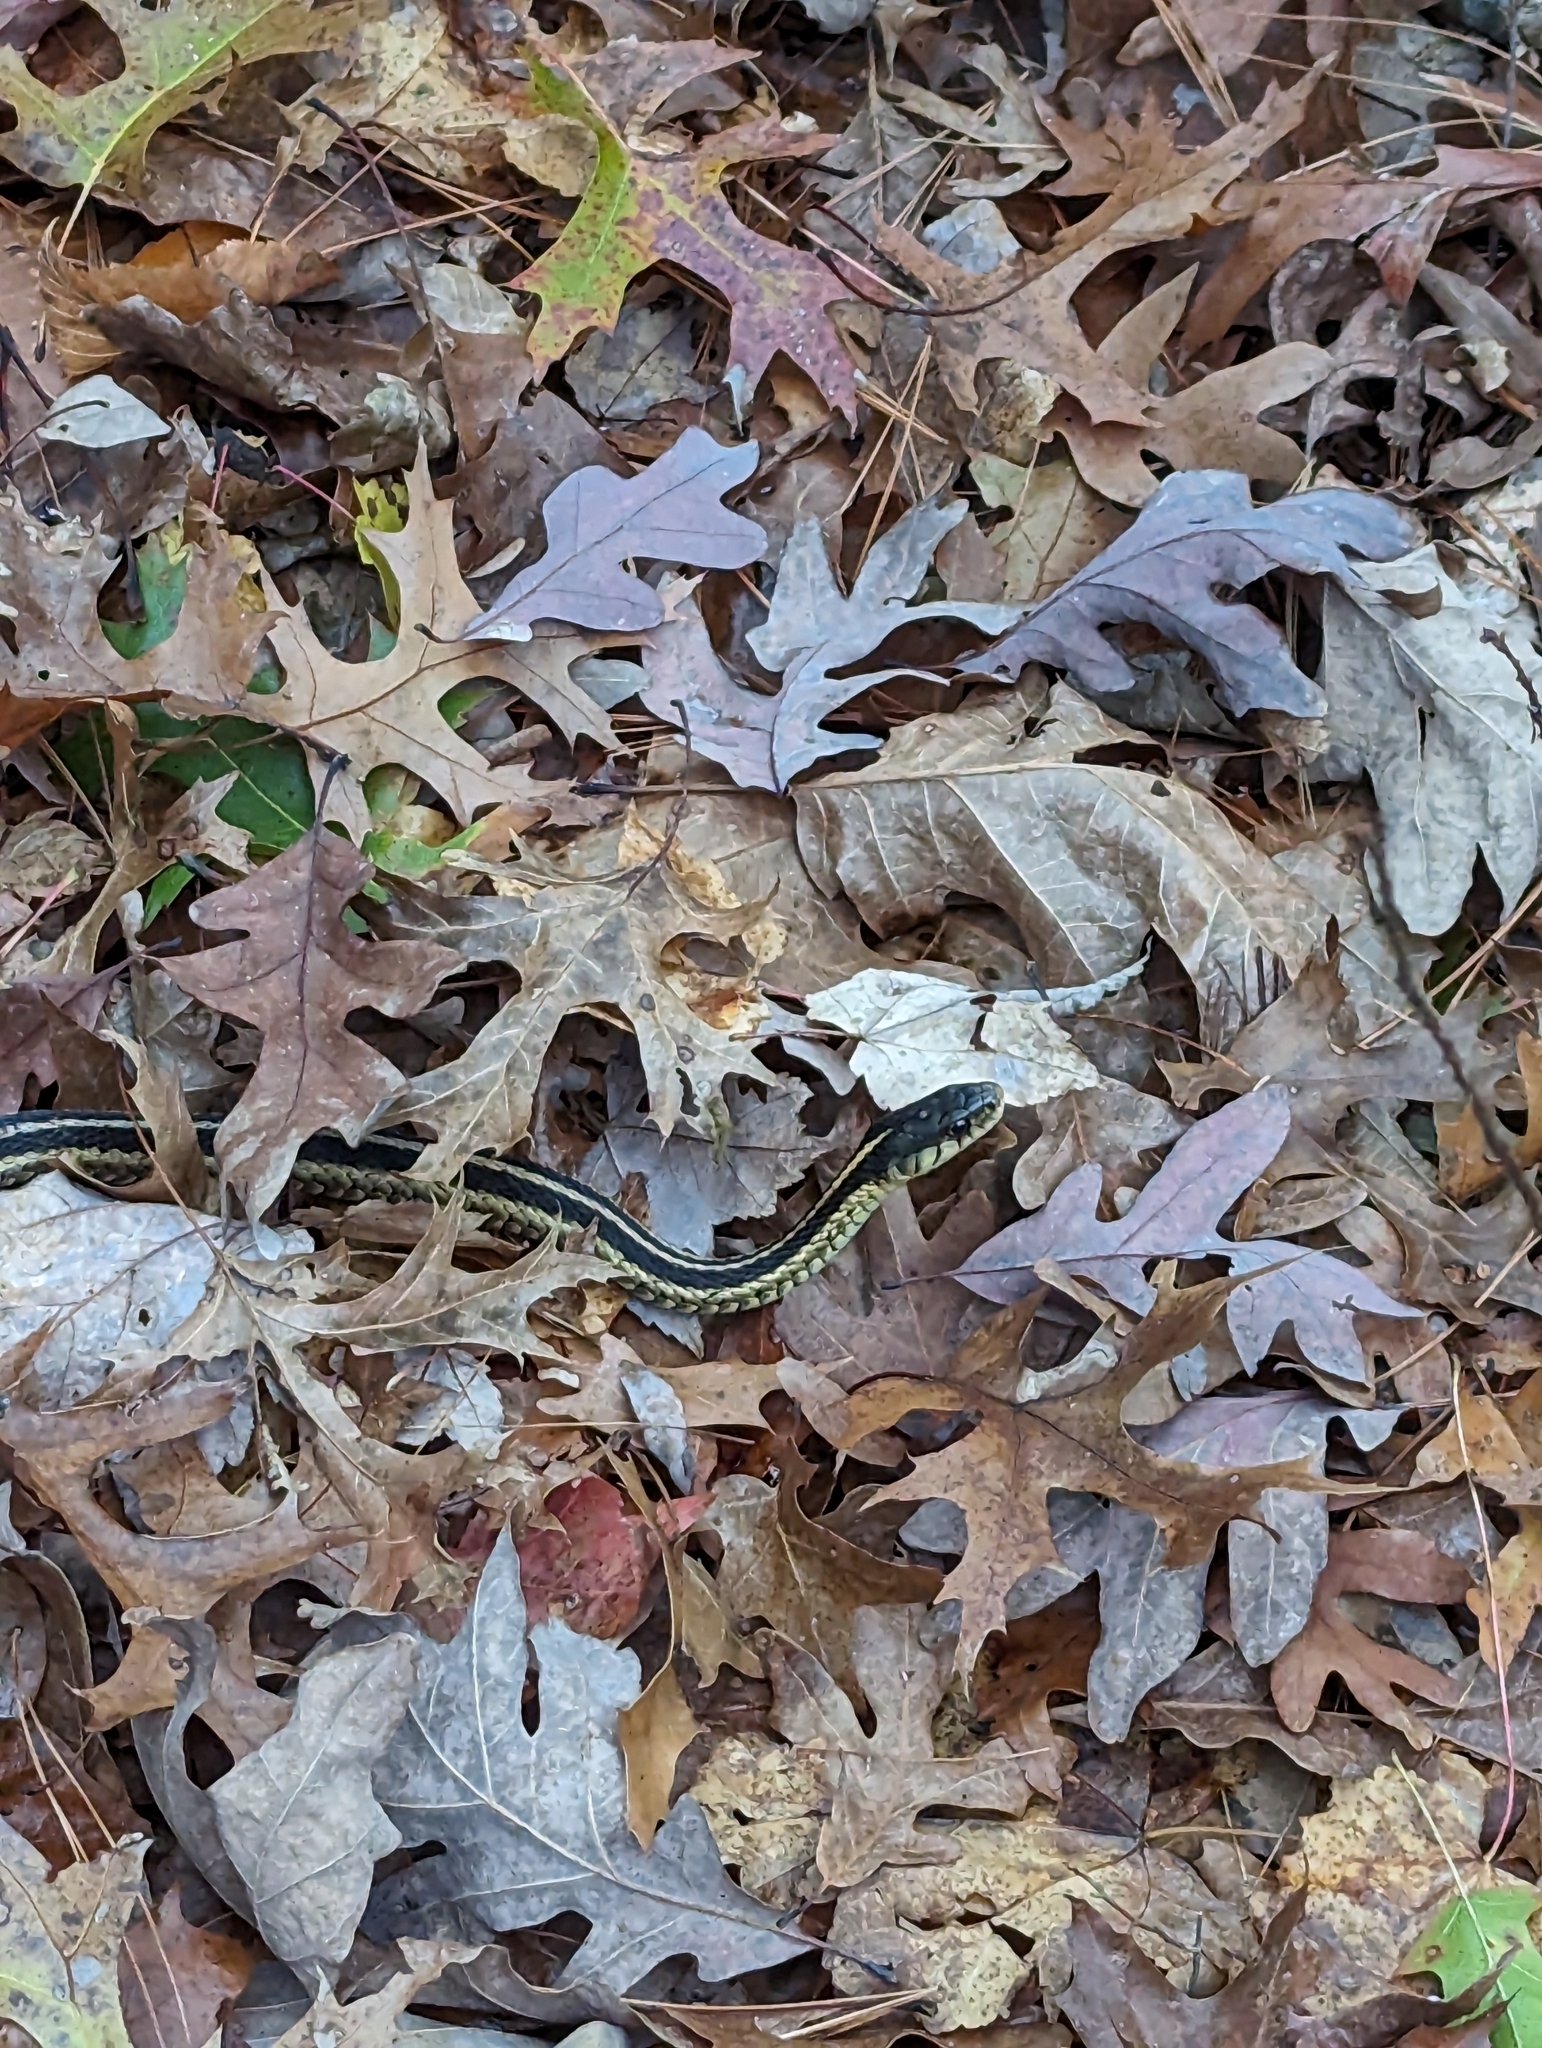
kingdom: Animalia
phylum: Chordata
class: Squamata
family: Colubridae
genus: Thamnophis
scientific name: Thamnophis sirtalis
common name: Common garter snake
